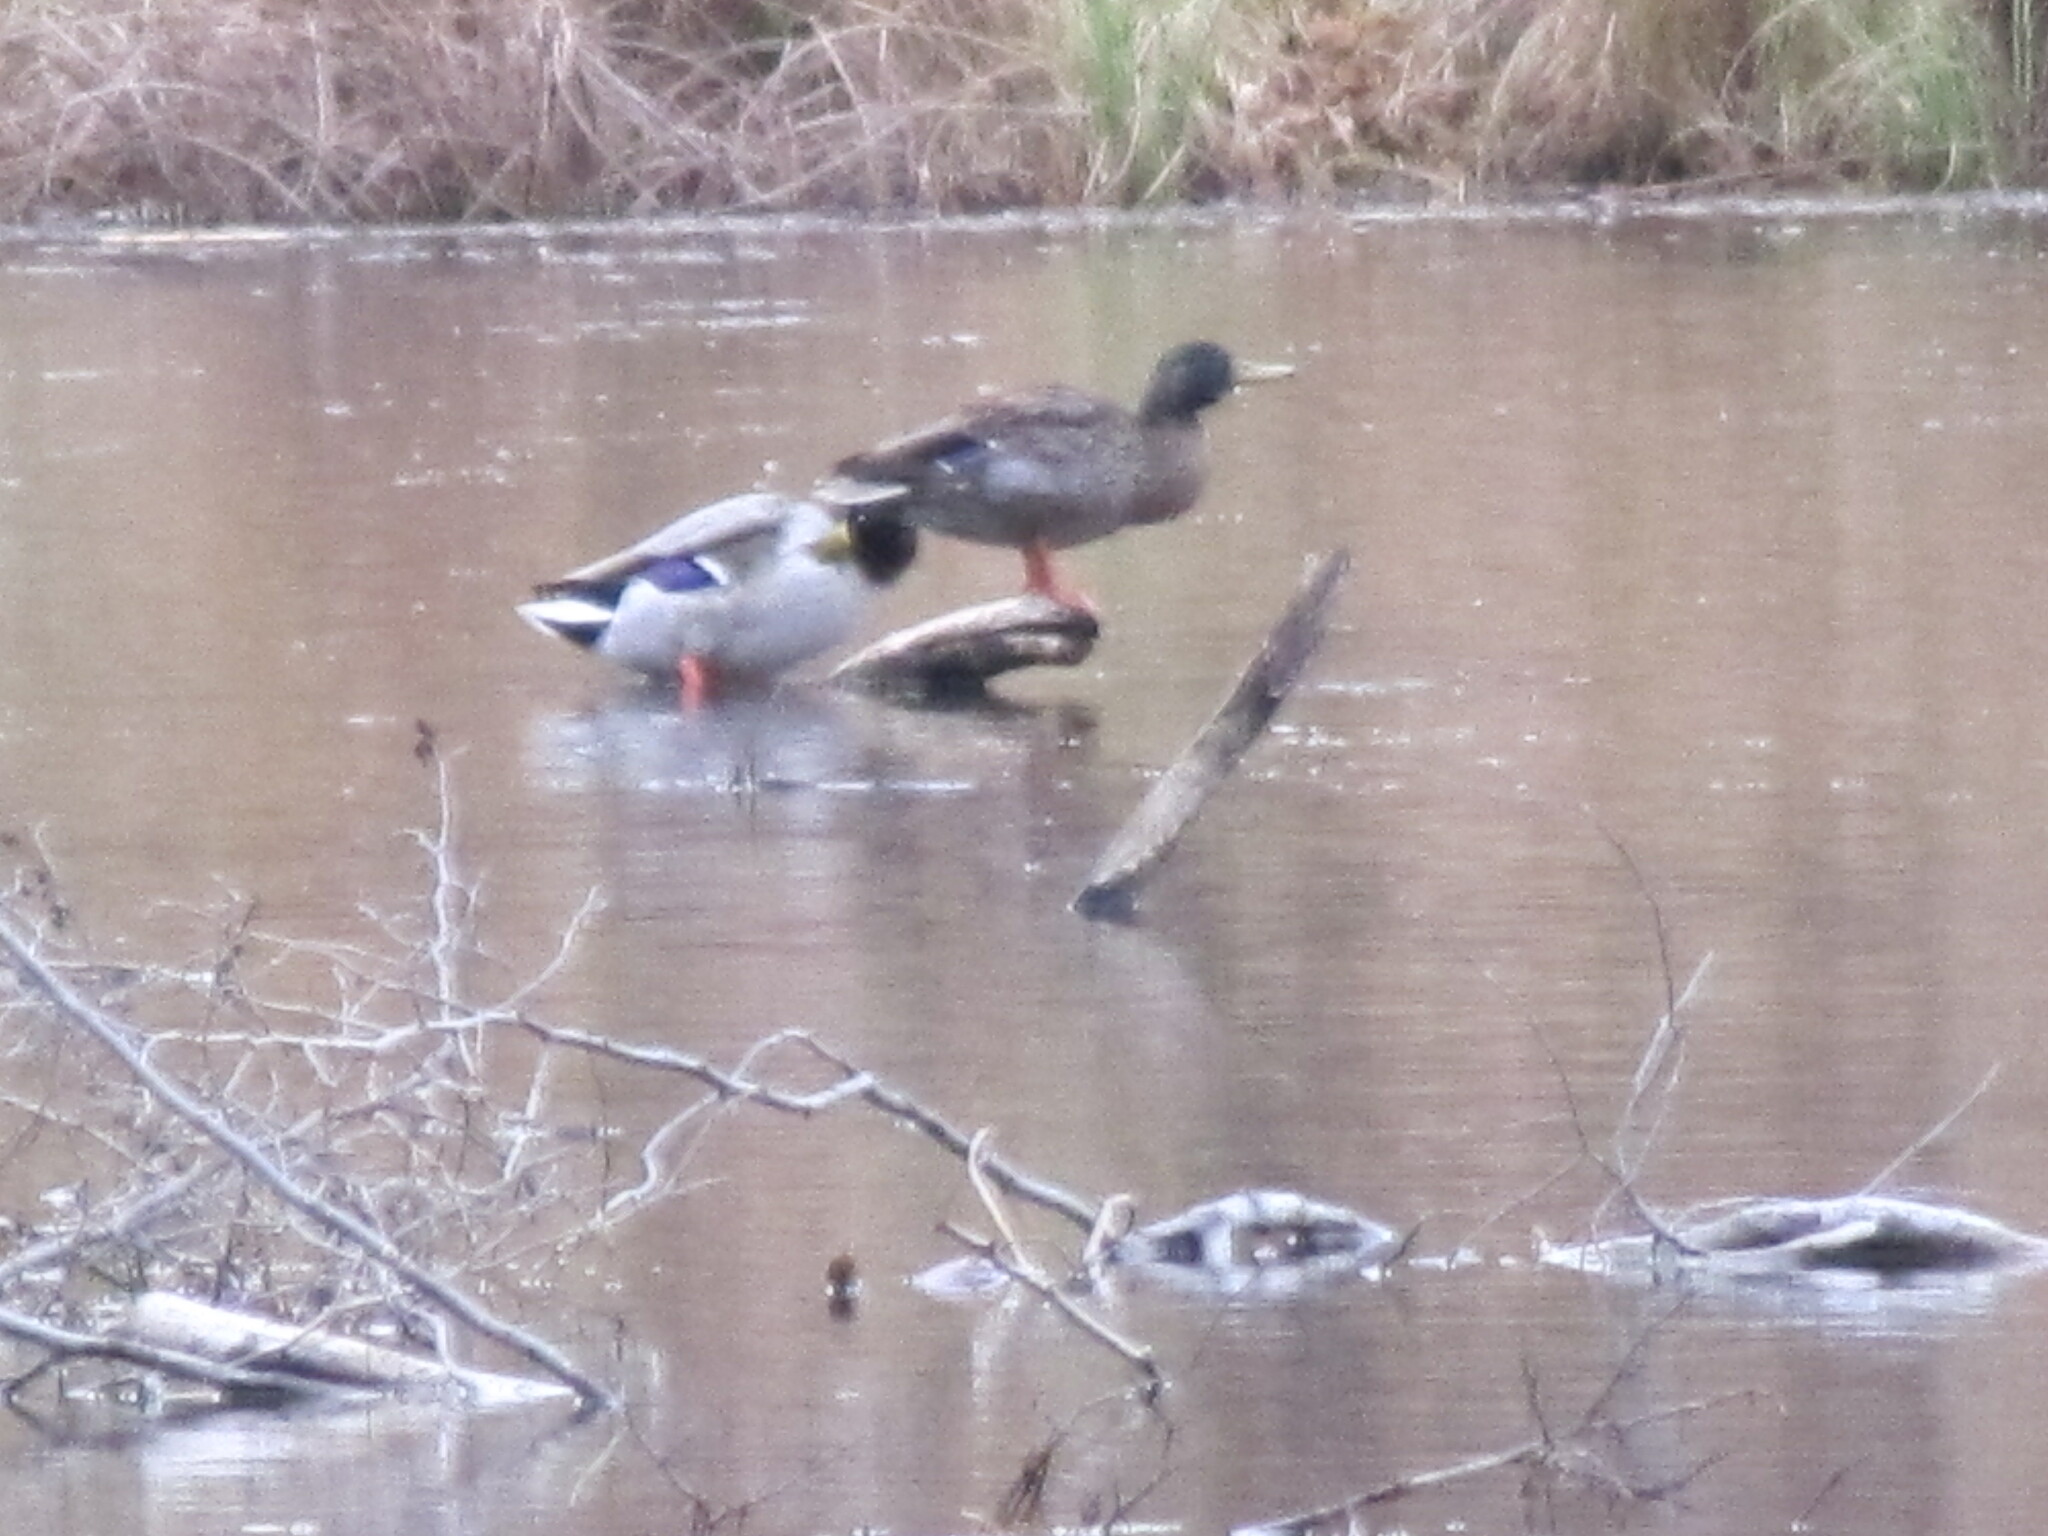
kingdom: Animalia
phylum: Chordata
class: Aves
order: Anseriformes
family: Anatidae
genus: Anas
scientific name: Anas platyrhynchos
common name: Mallard
